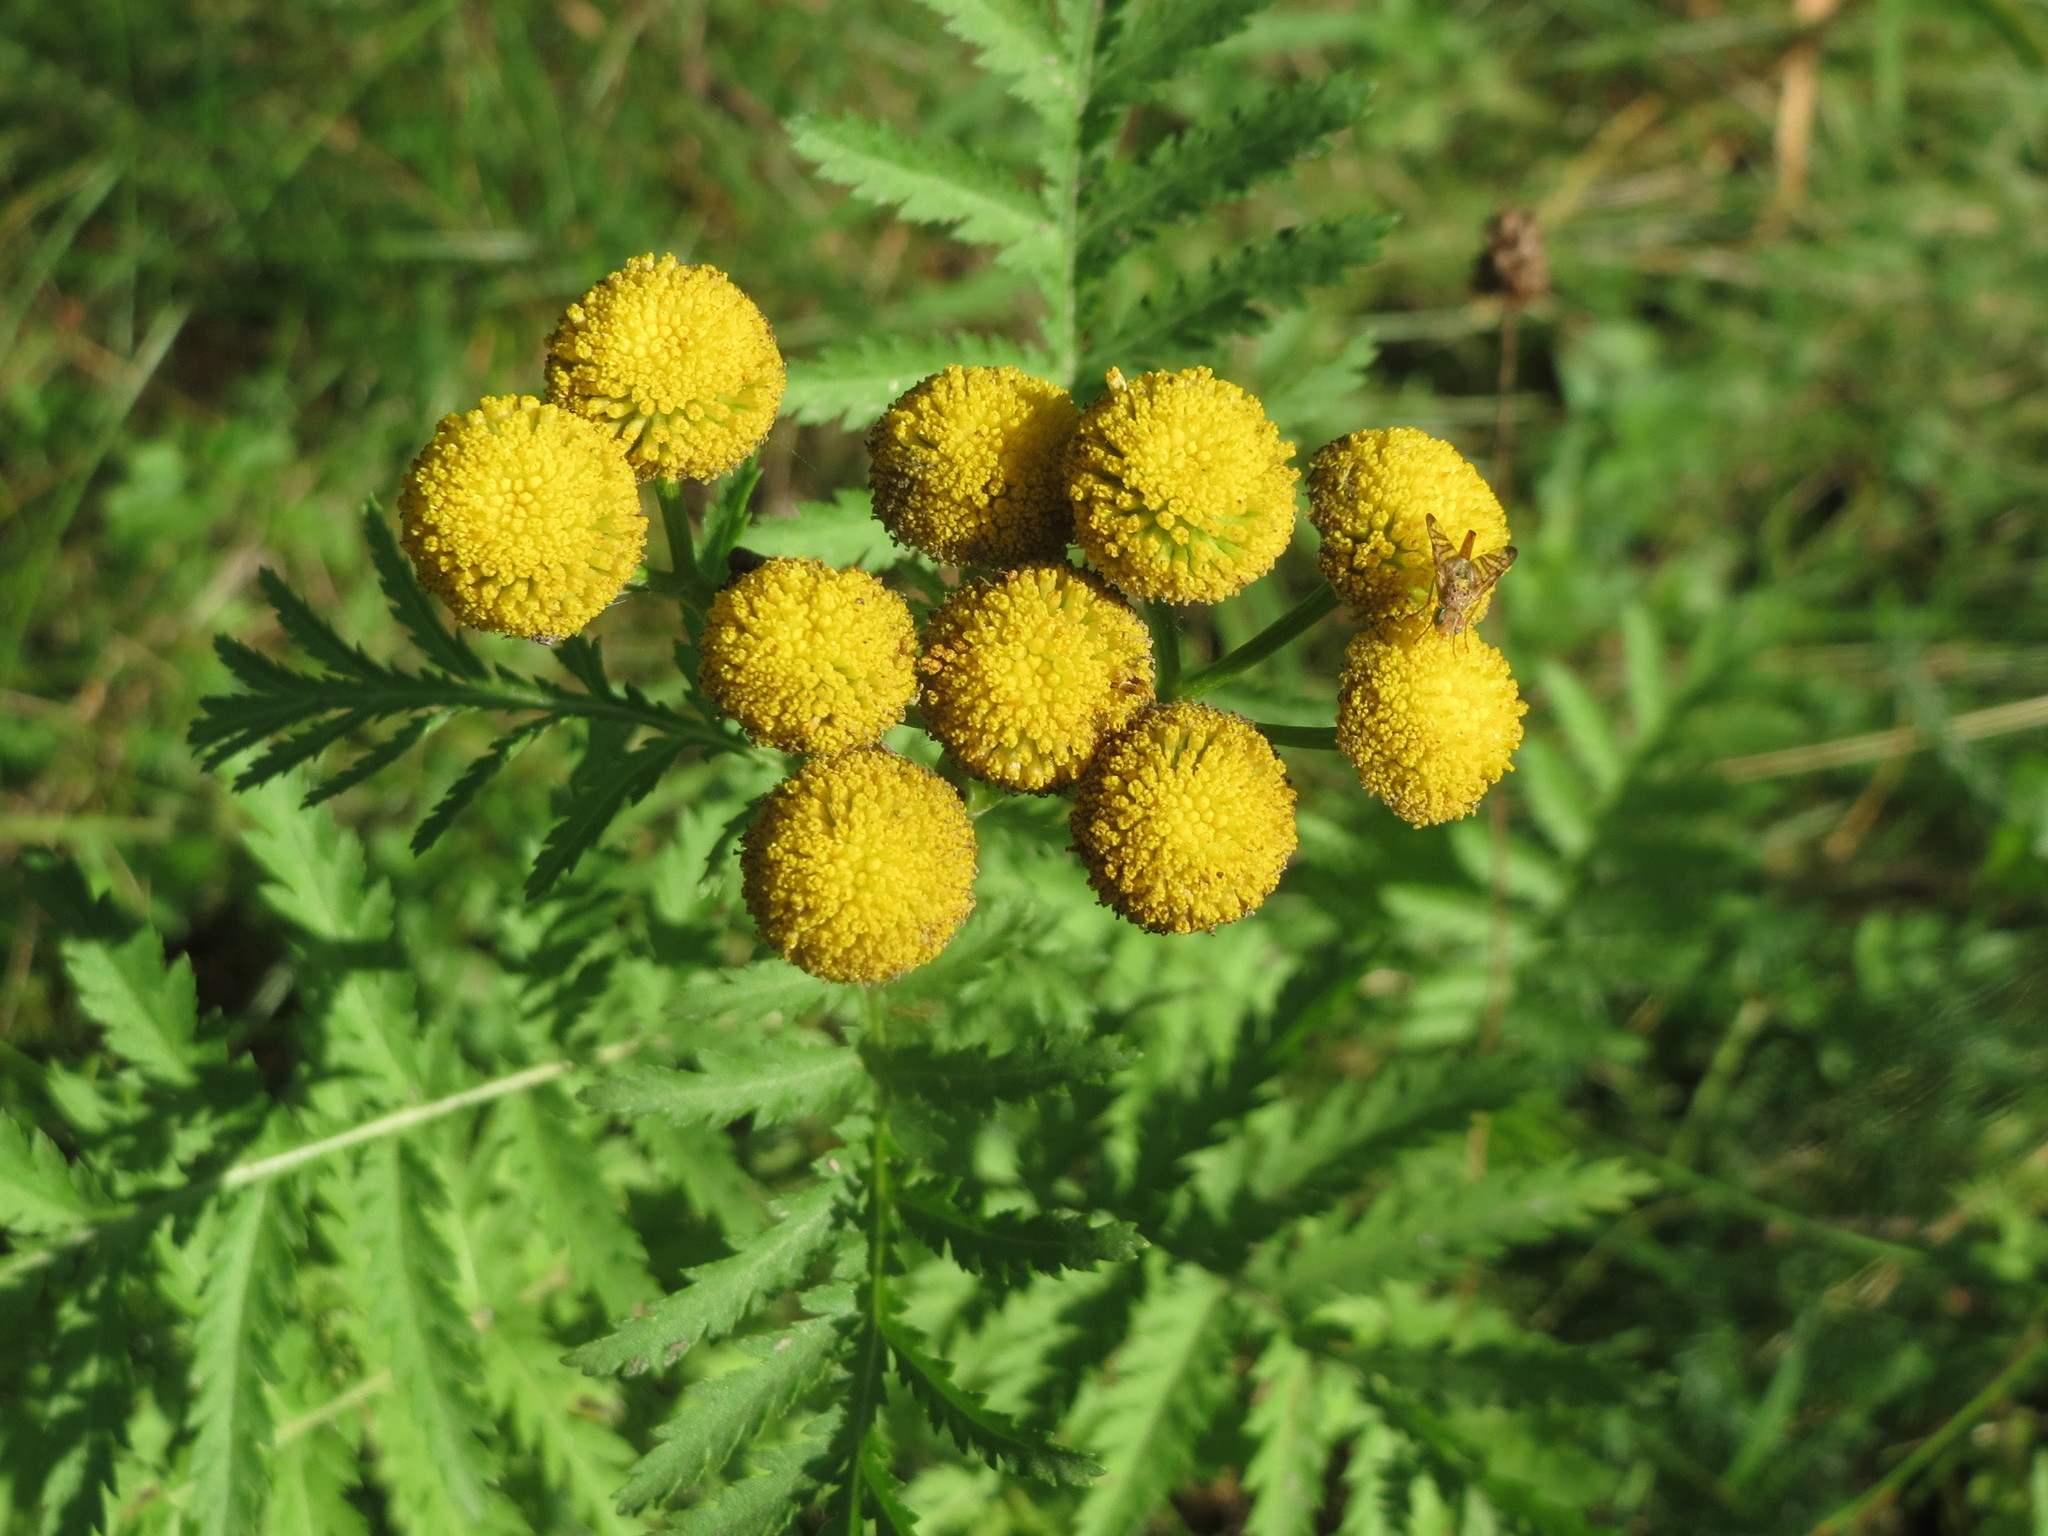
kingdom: Plantae
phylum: Tracheophyta
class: Magnoliopsida
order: Asterales
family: Asteraceae
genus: Tanacetum
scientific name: Tanacetum vulgare
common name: Common tansy
